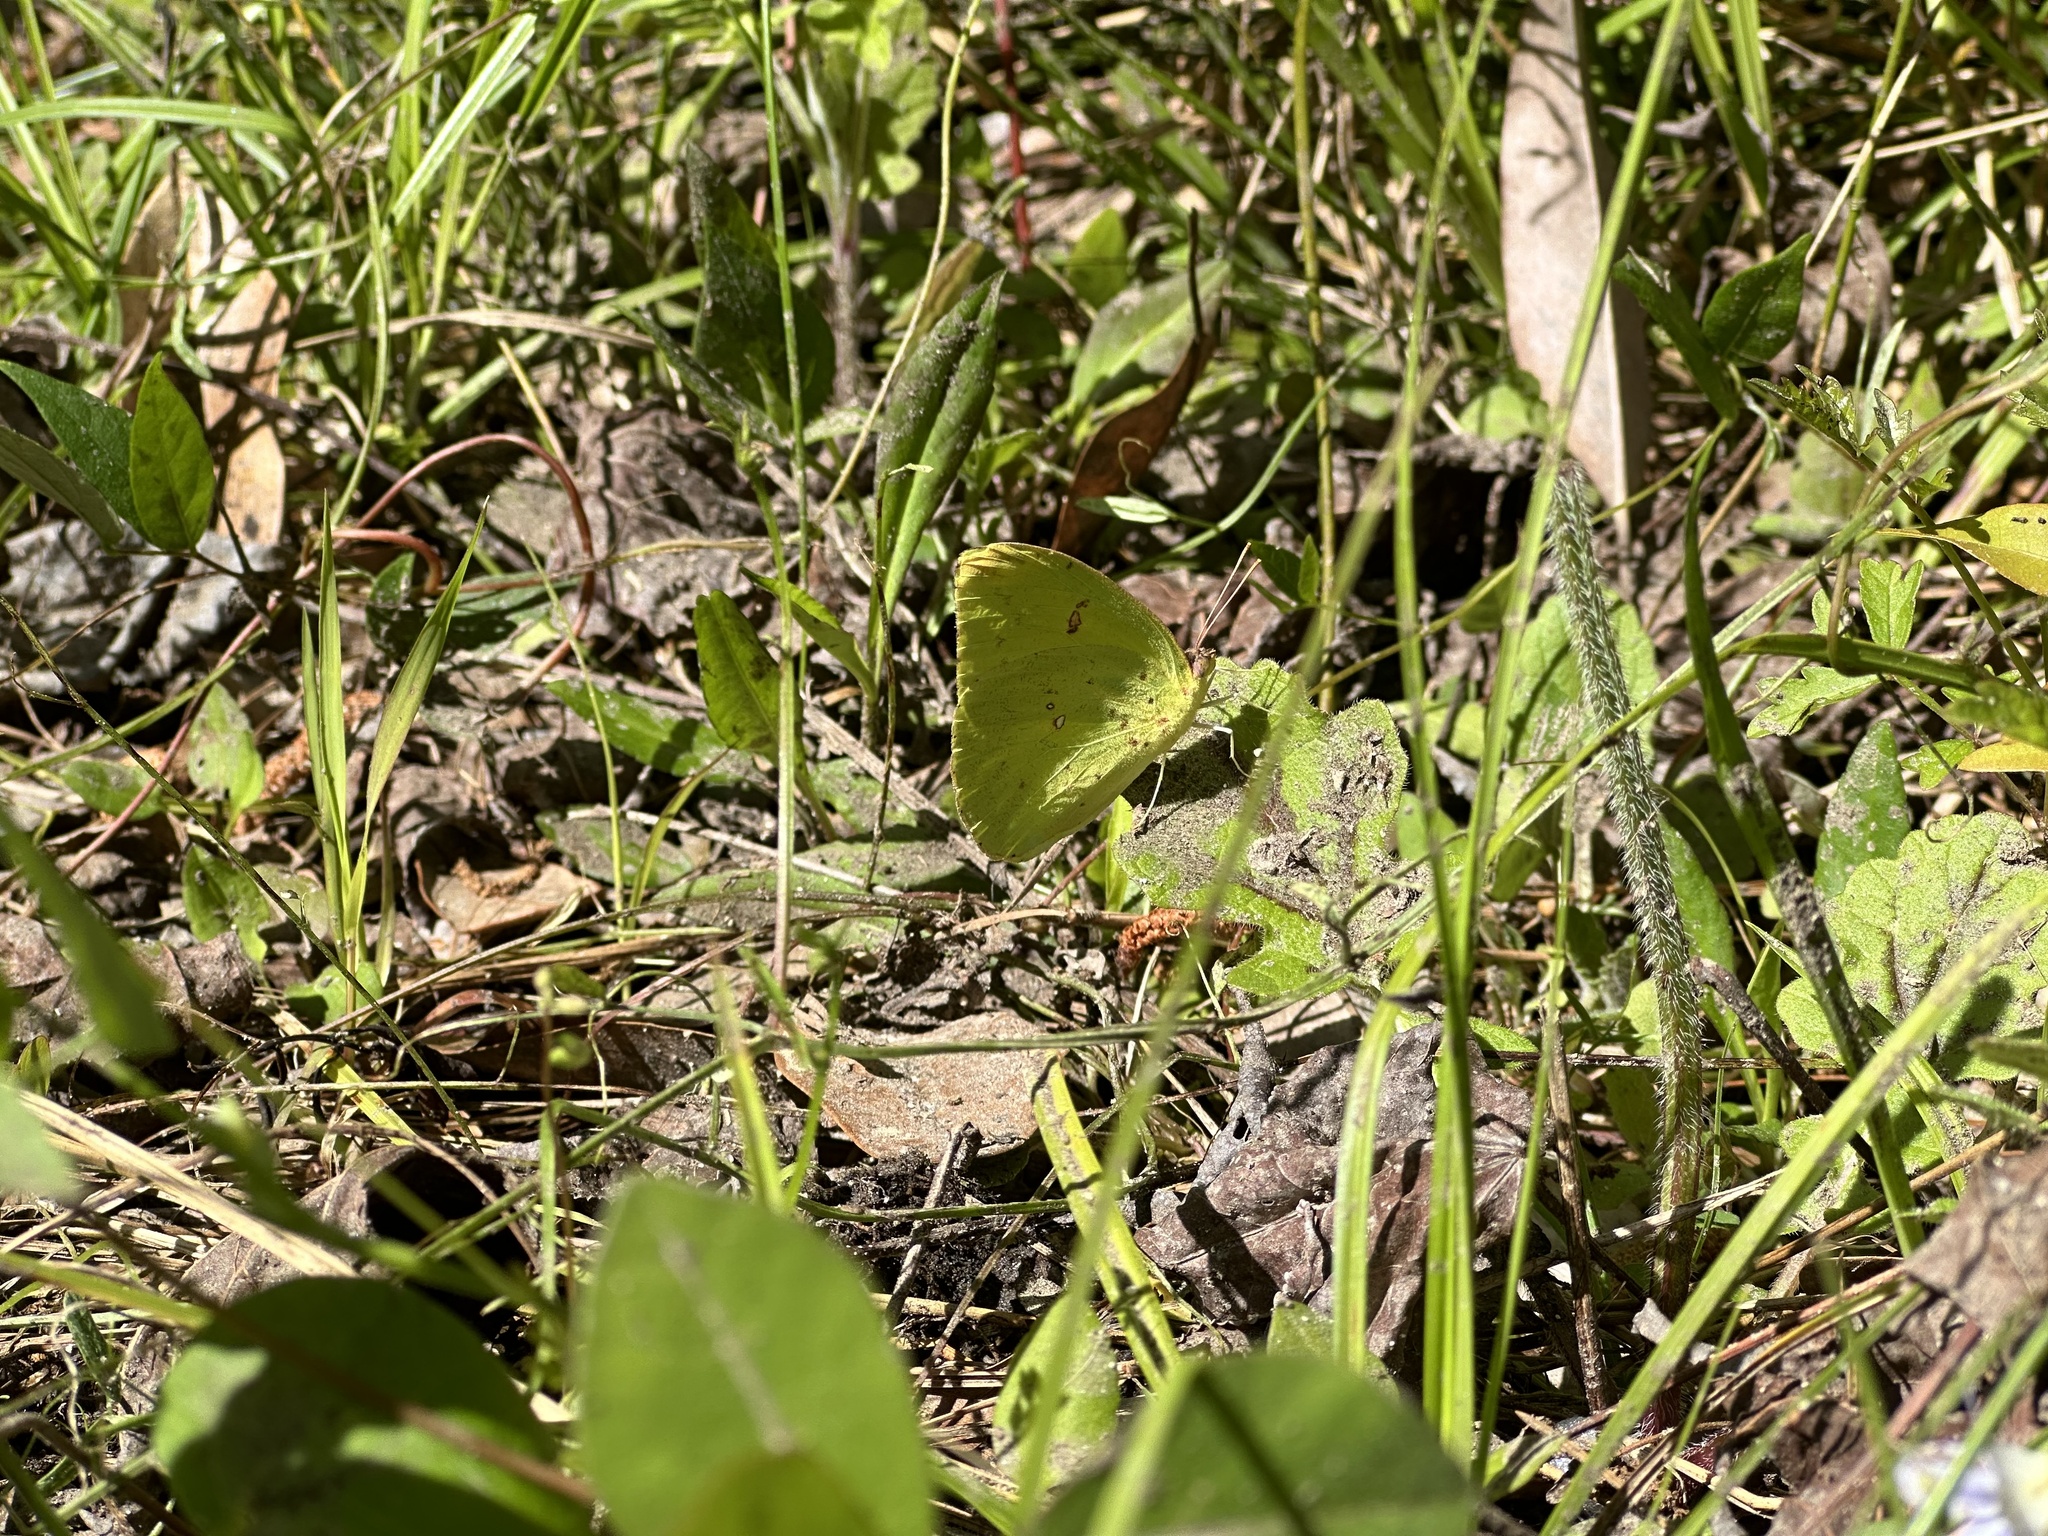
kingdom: Animalia
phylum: Arthropoda
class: Insecta
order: Lepidoptera
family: Pieridae
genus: Phoebis
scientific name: Phoebis sennae
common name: Cloudless sulphur
